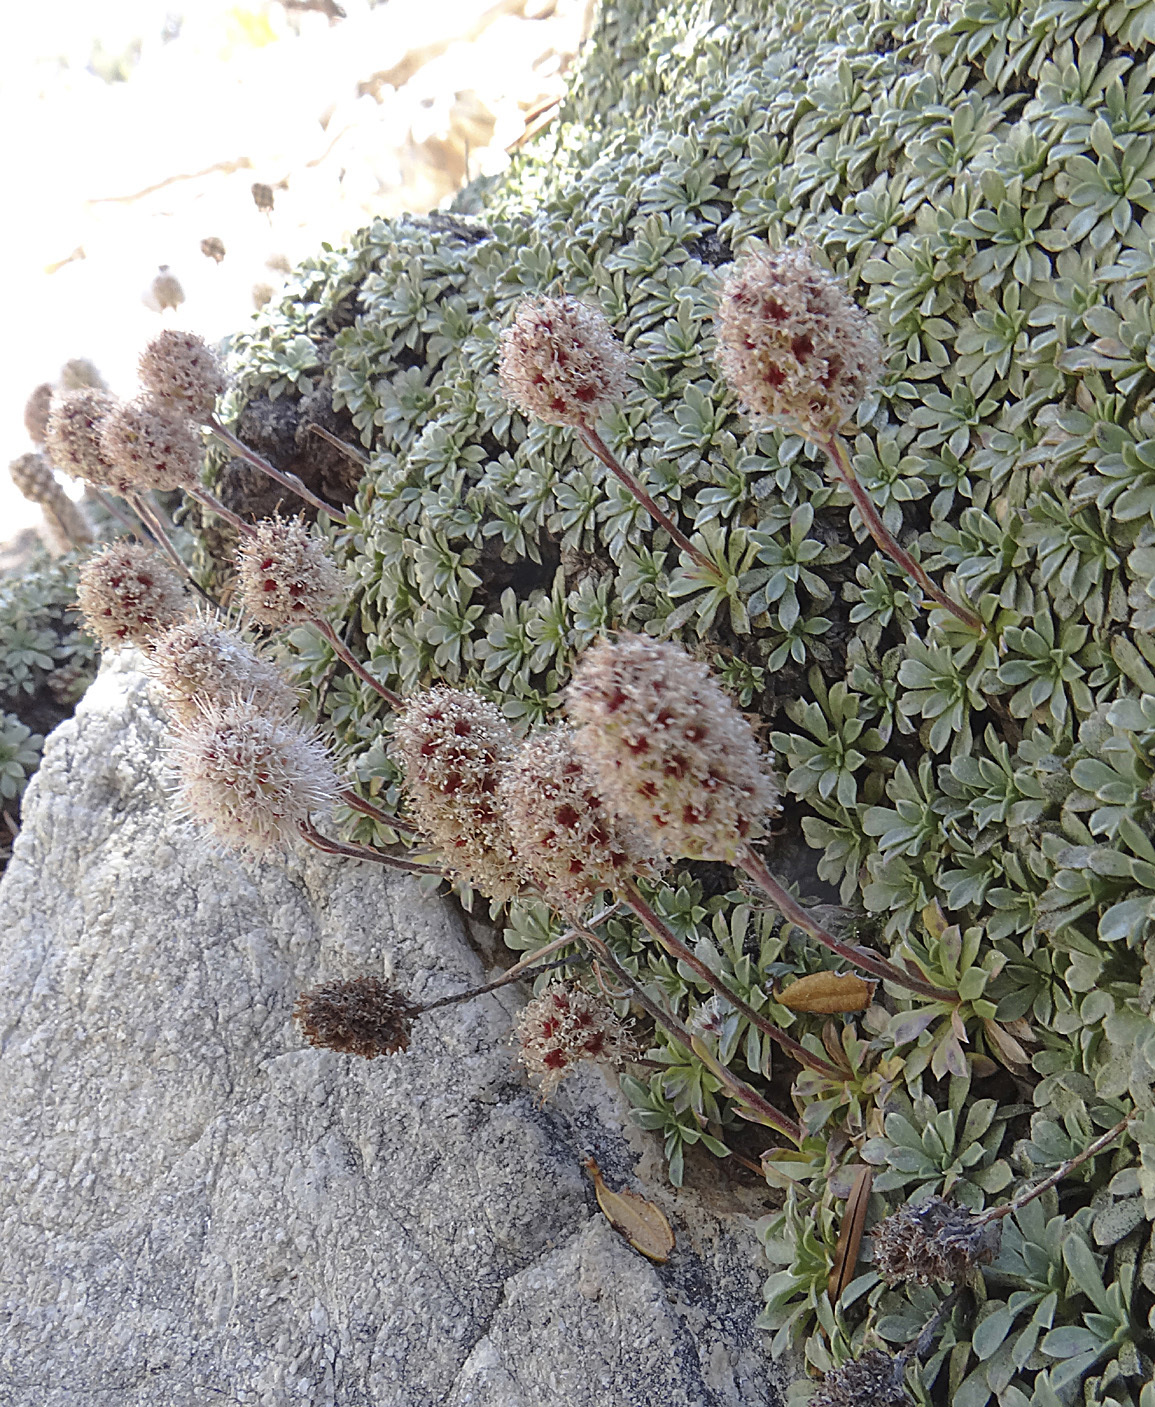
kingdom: Plantae
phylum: Tracheophyta
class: Magnoliopsida
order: Rosales
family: Rosaceae
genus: Petrophytum
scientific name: Petrophytum caespitosum
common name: Mat rockspirea
